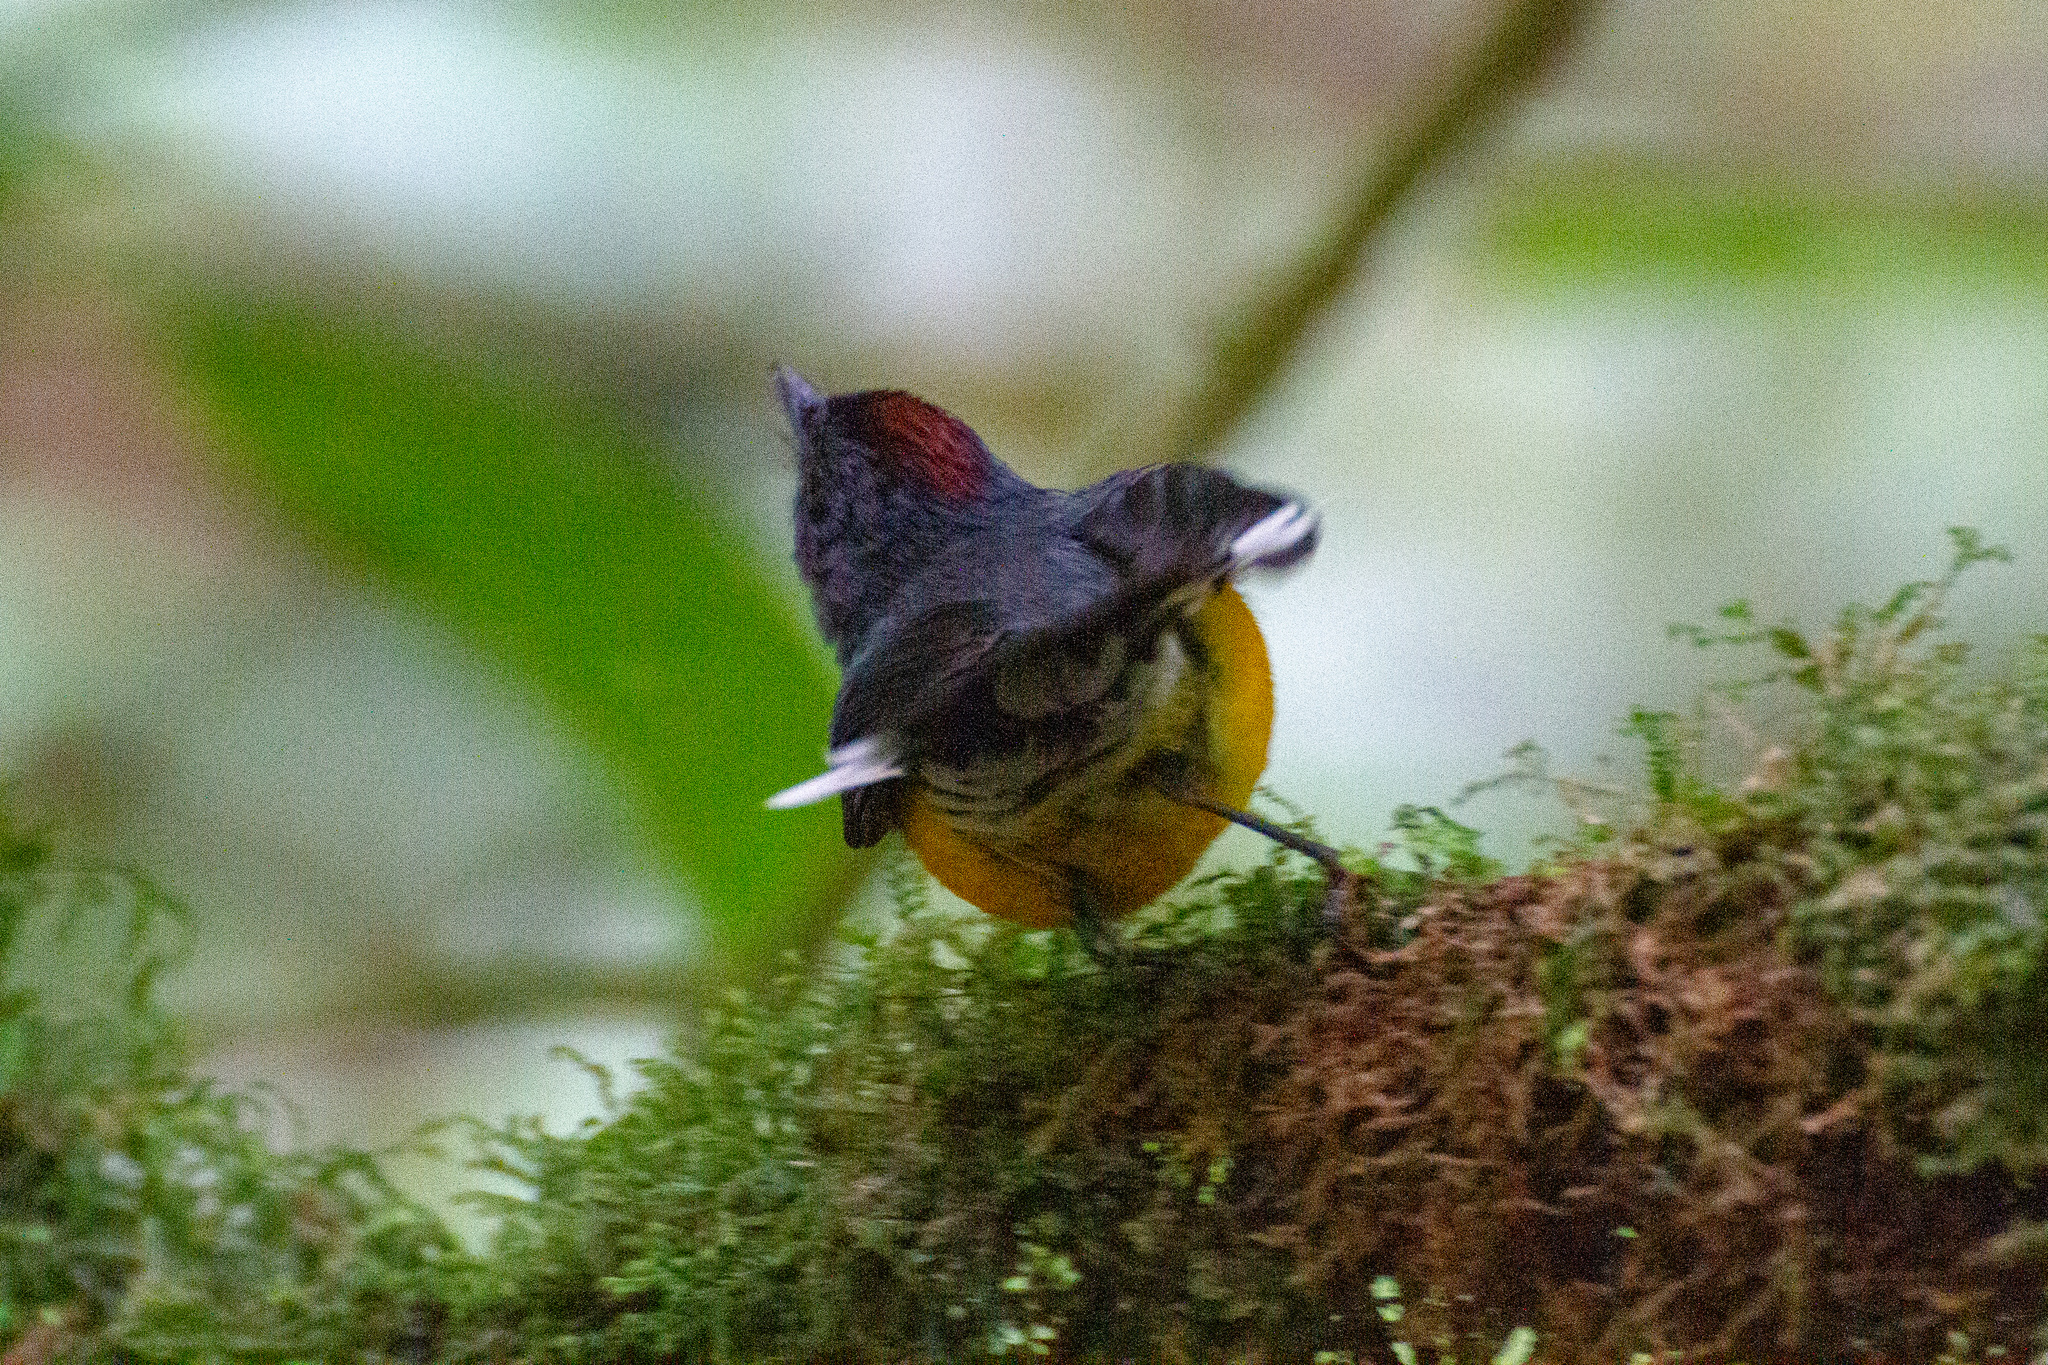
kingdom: Animalia
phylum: Chordata
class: Aves
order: Passeriformes
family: Parulidae
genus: Myioborus
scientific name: Myioborus miniatus
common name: Slate-throated redstart
